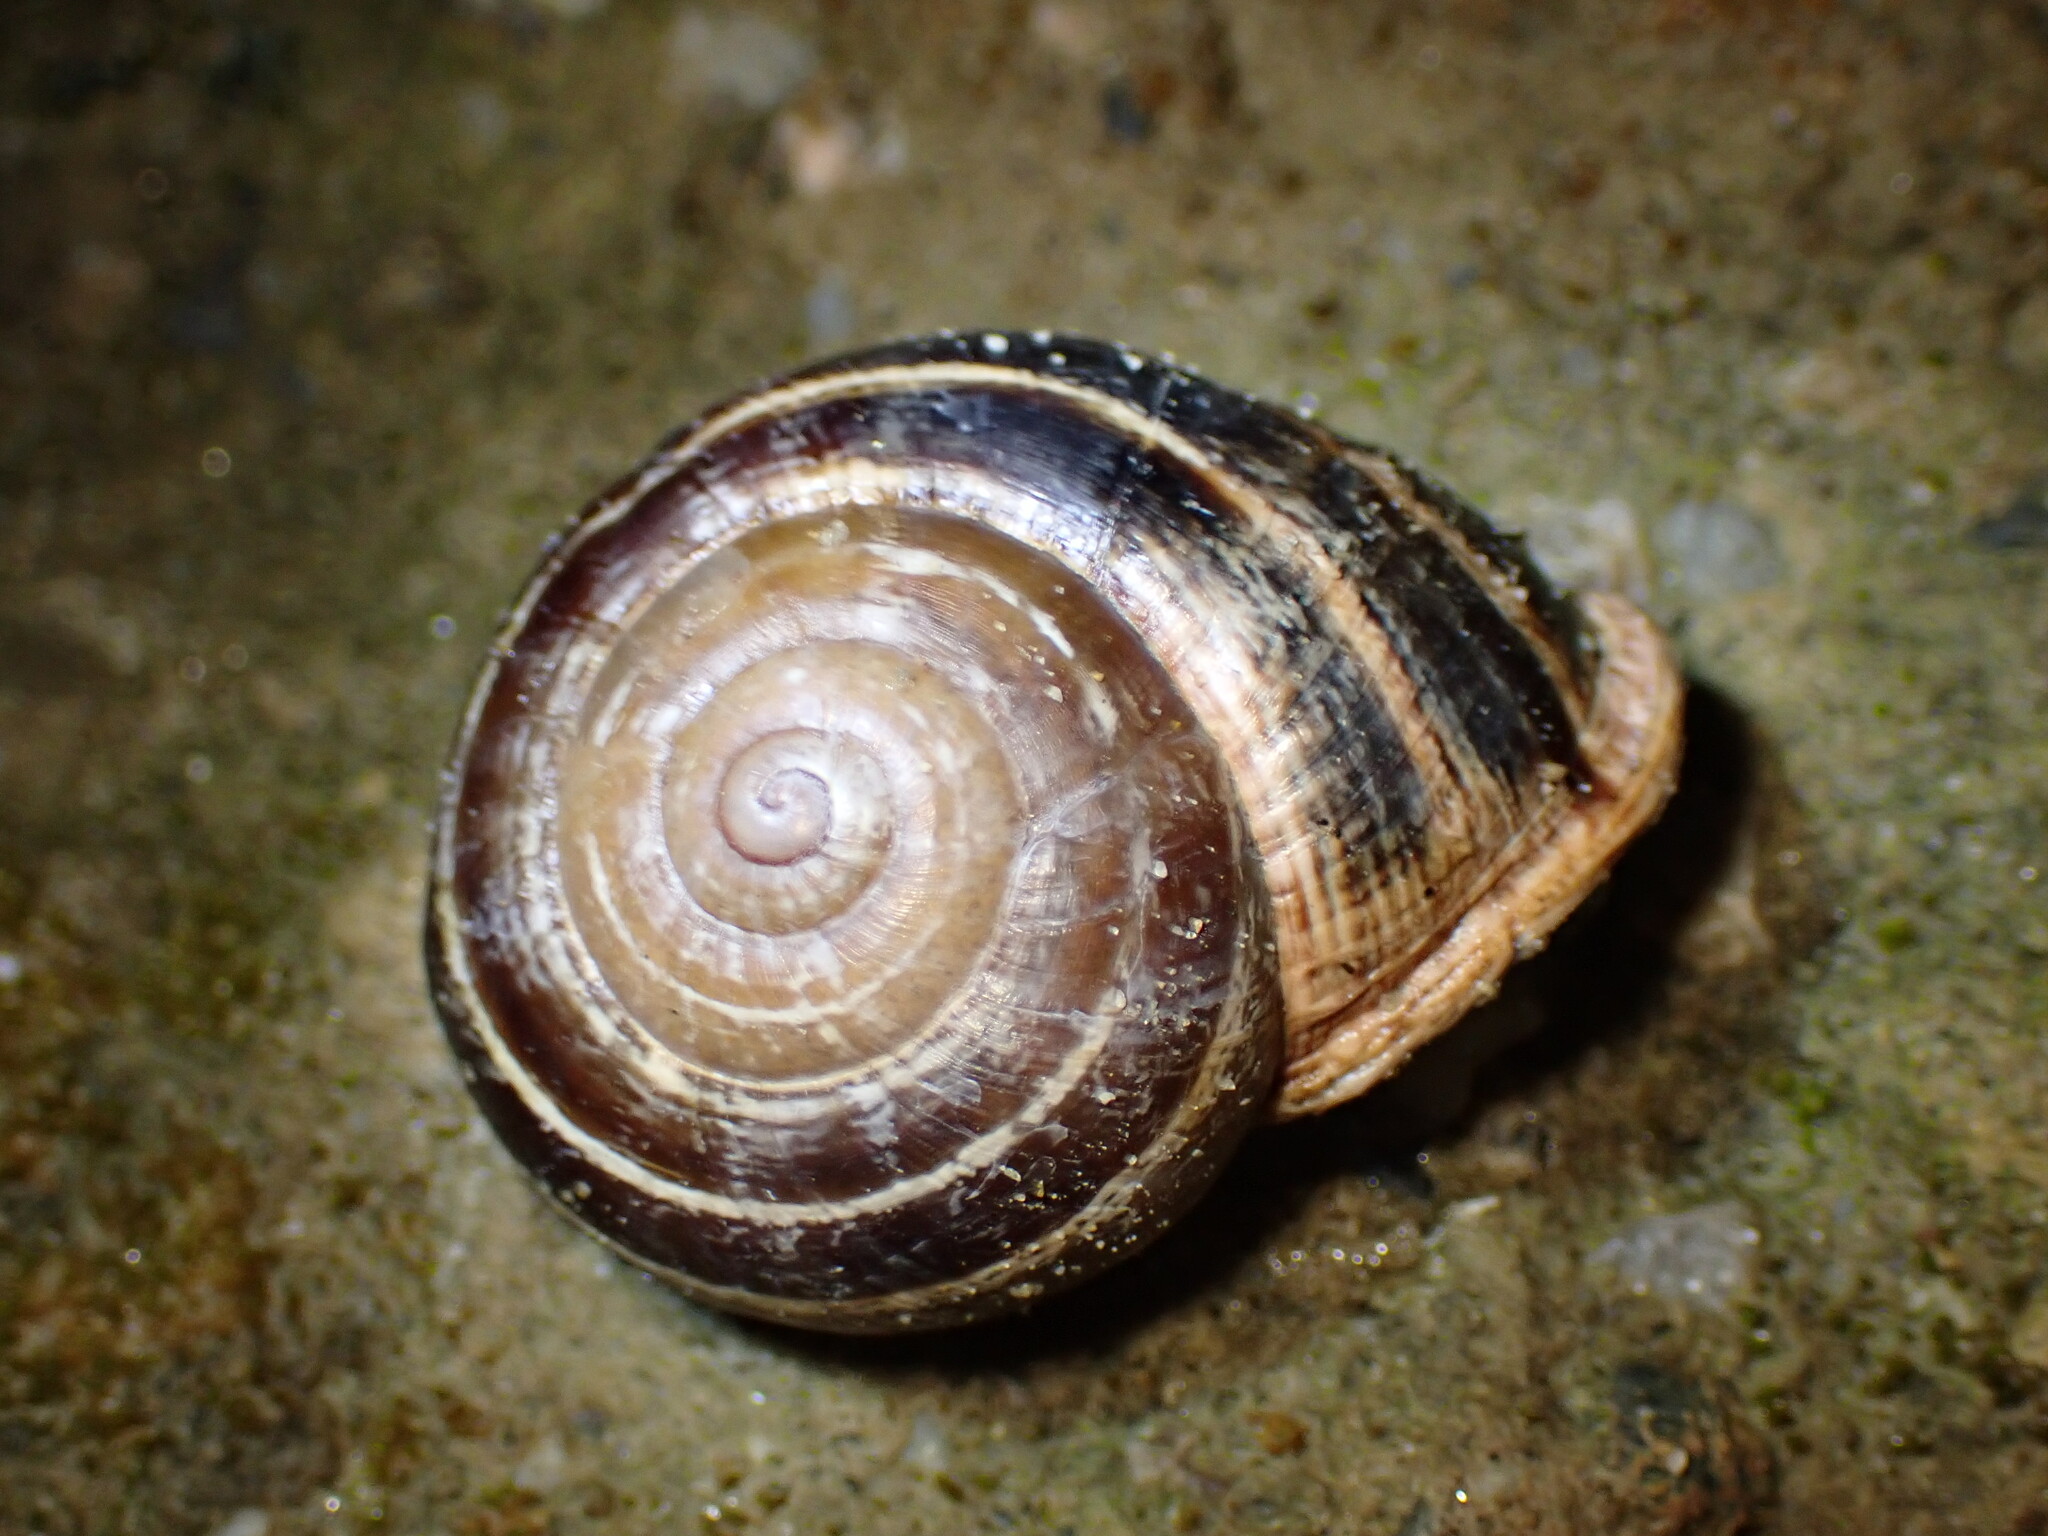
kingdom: Animalia
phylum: Mollusca
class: Gastropoda
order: Stylommatophora
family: Helicidae
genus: Otala
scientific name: Otala lactea
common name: Milk snail
